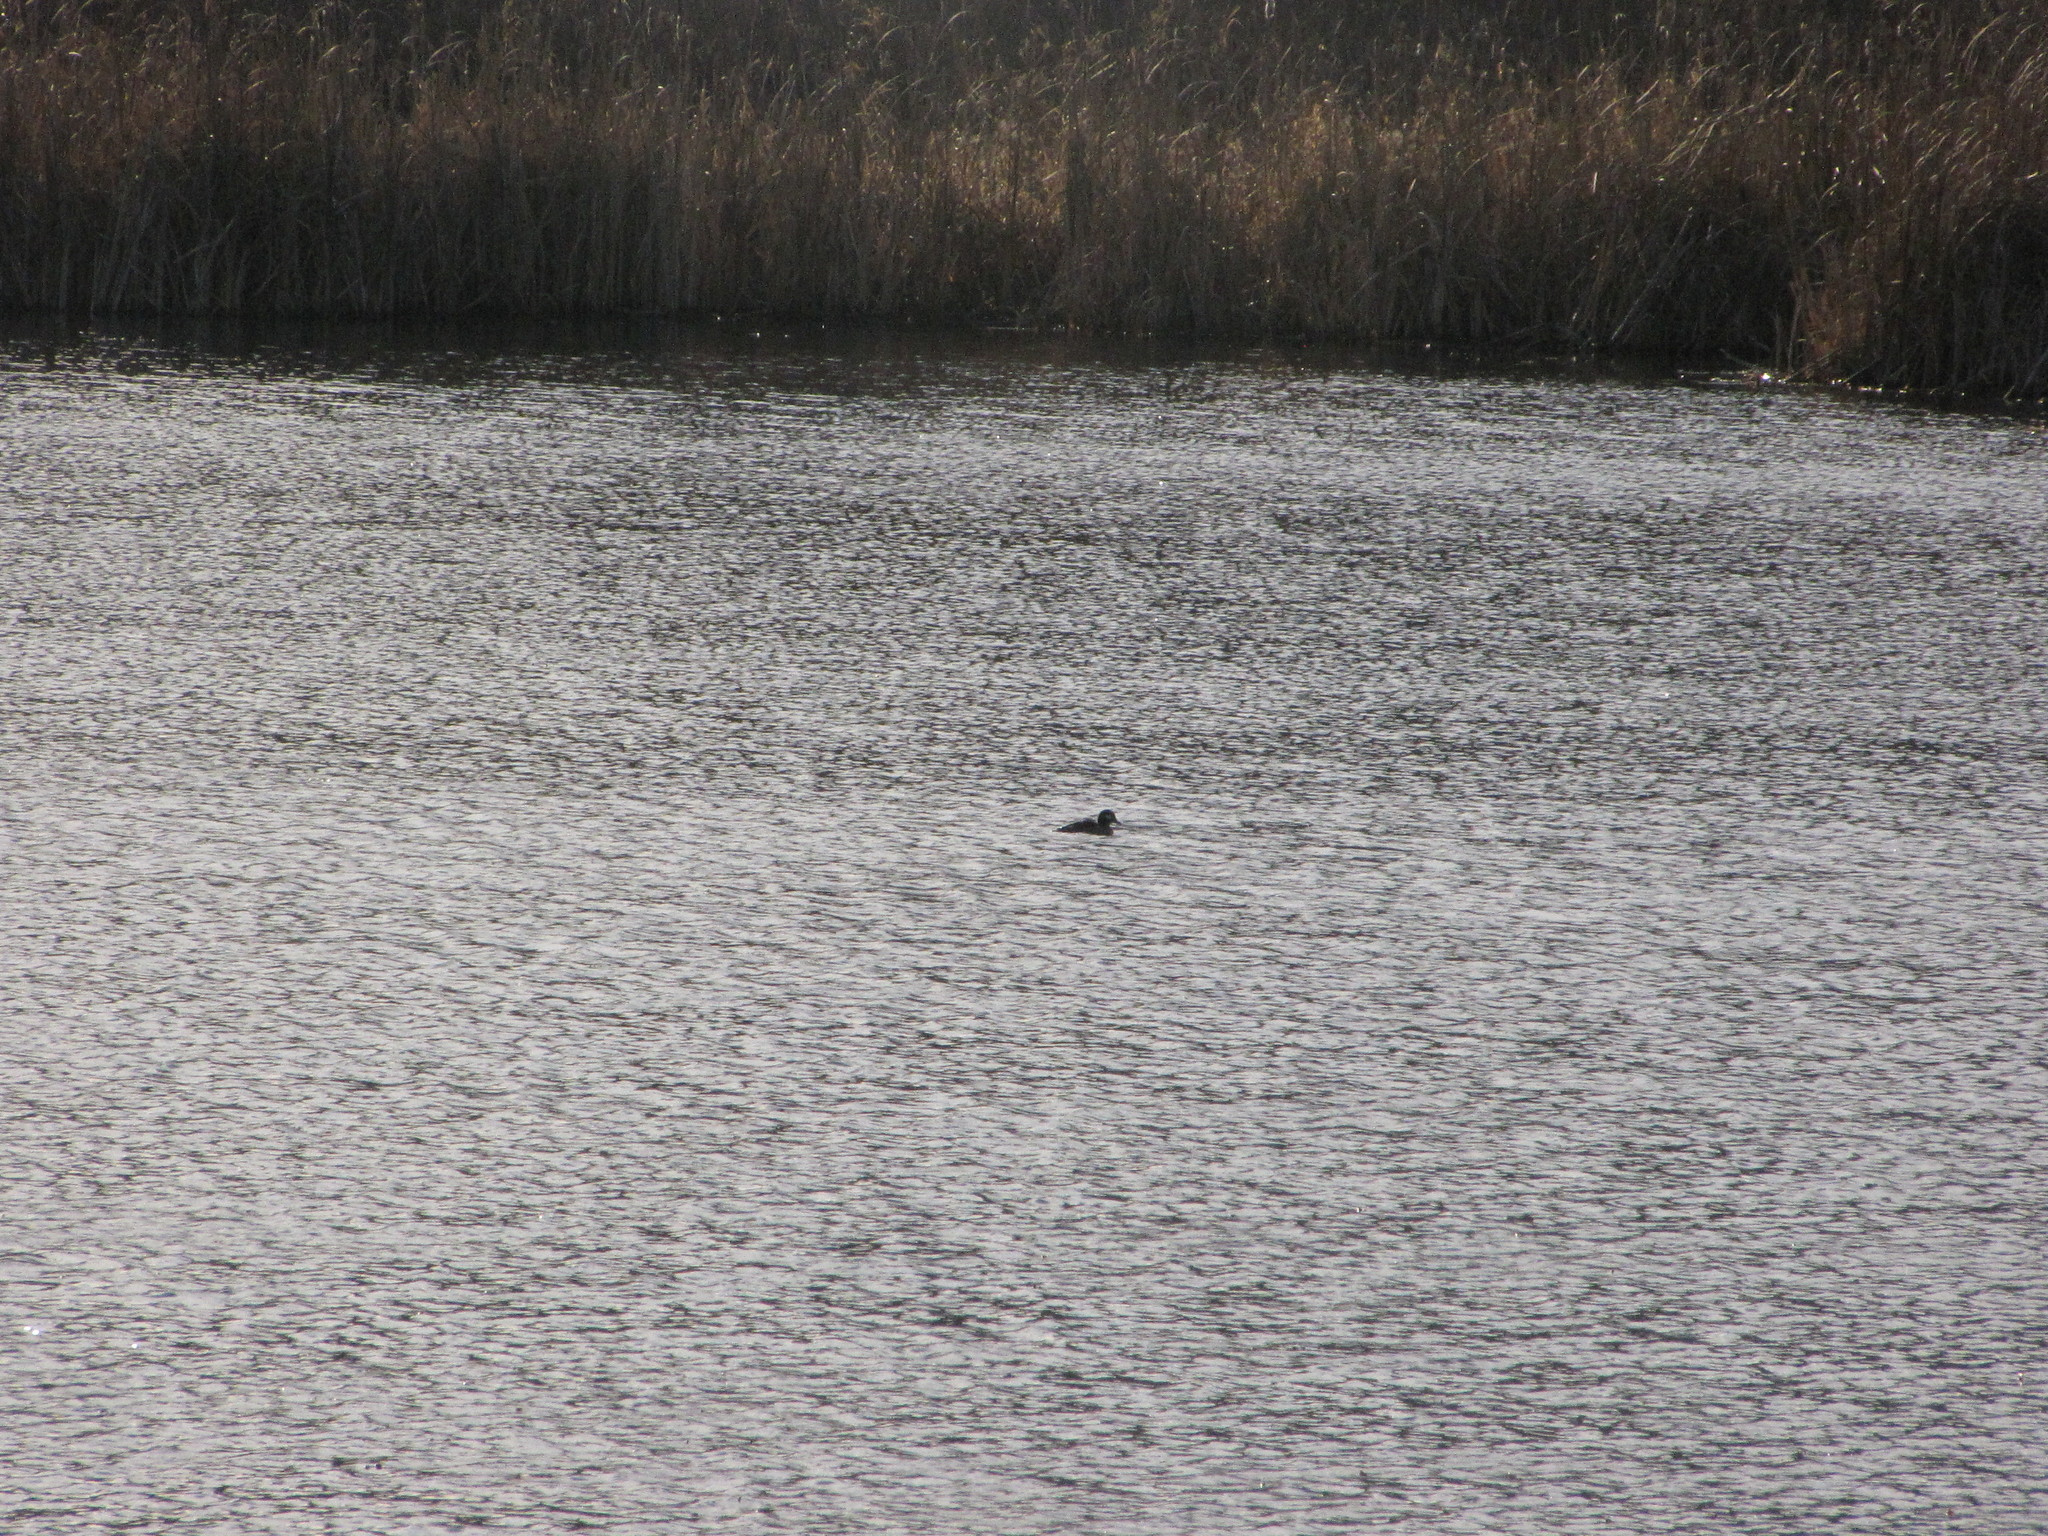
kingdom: Animalia
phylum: Chordata
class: Aves
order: Anseriformes
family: Anatidae
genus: Bucephala
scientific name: Bucephala albeola
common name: Bufflehead
